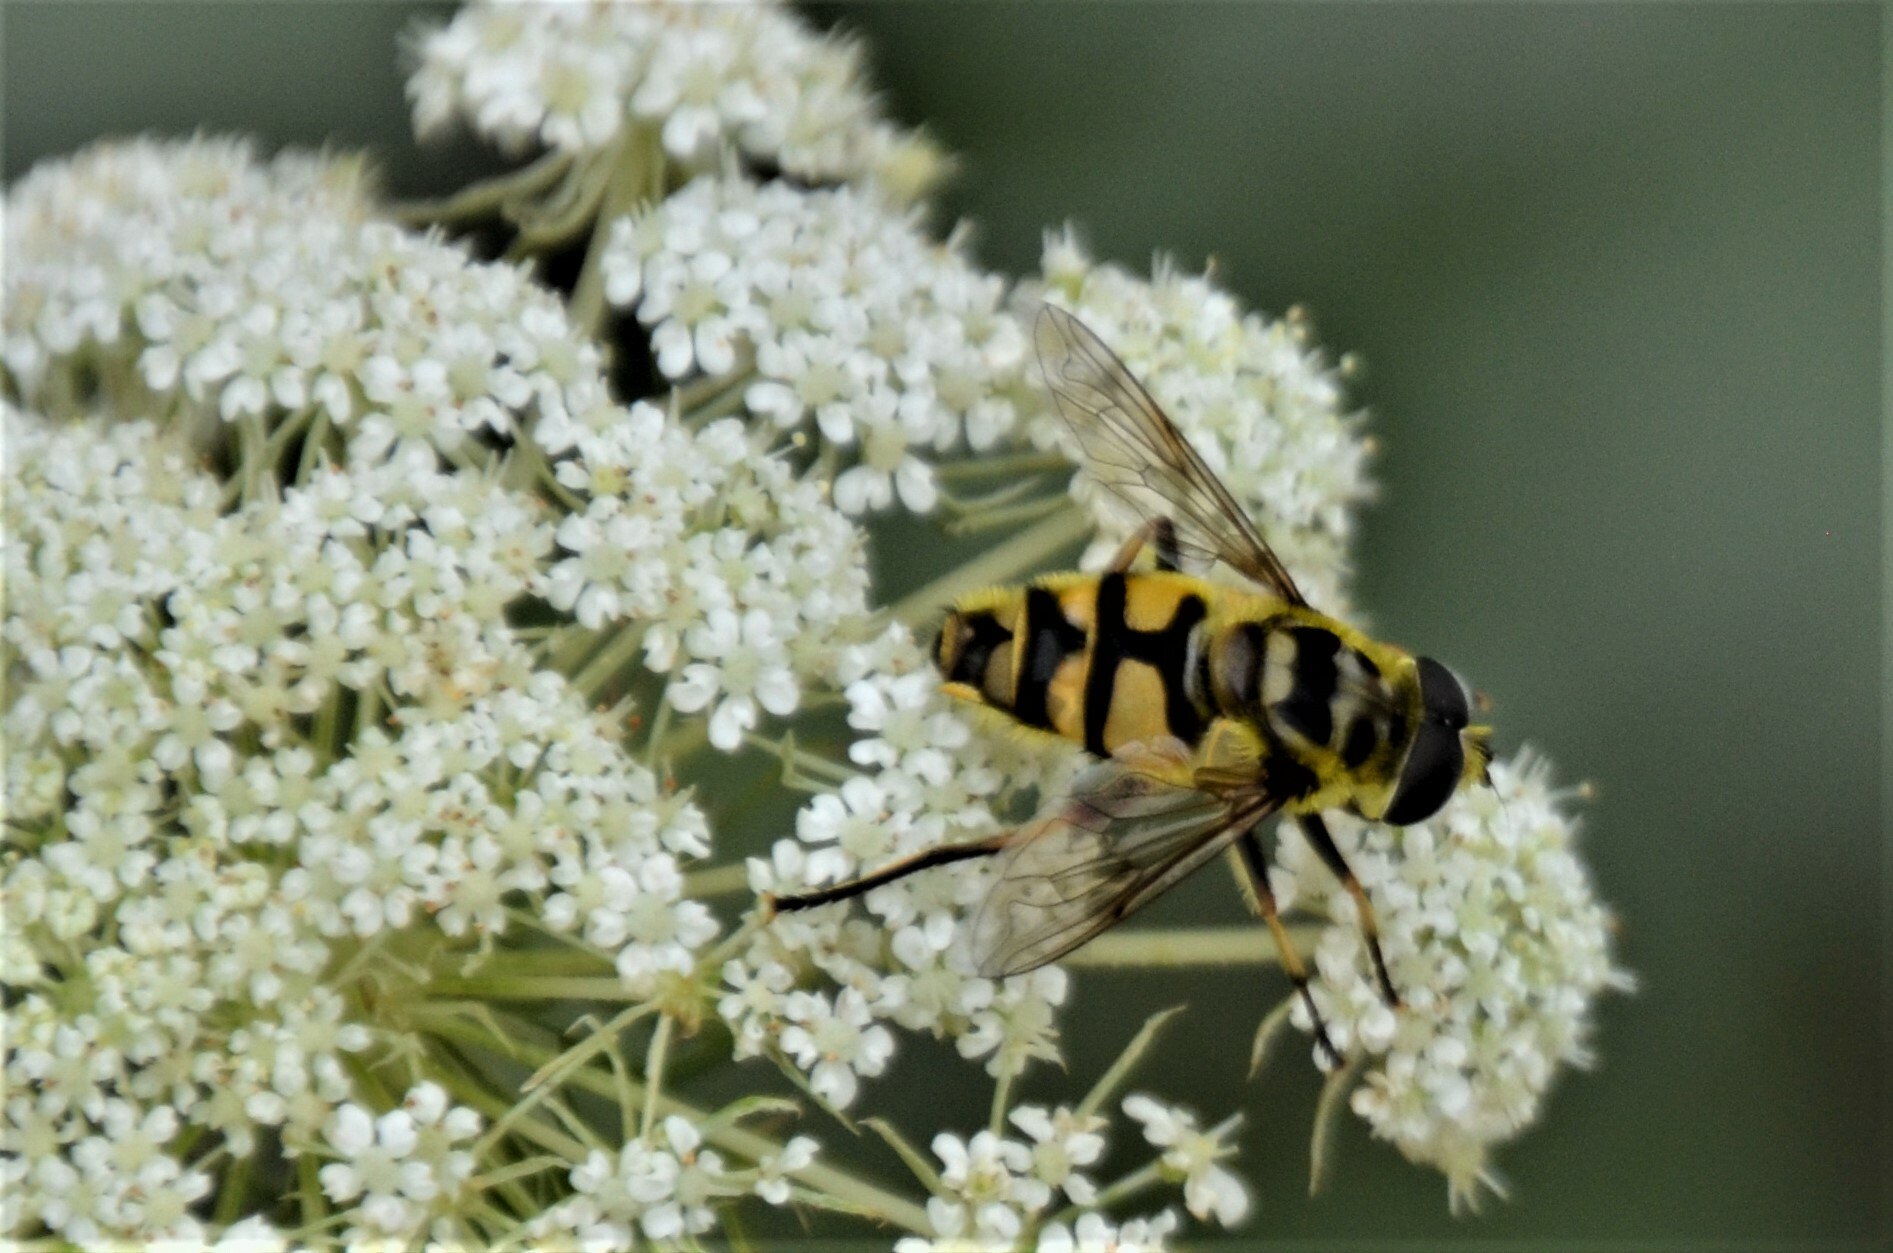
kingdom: Animalia
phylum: Arthropoda
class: Insecta
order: Diptera
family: Syrphidae
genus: Myathropa
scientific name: Myathropa florea
